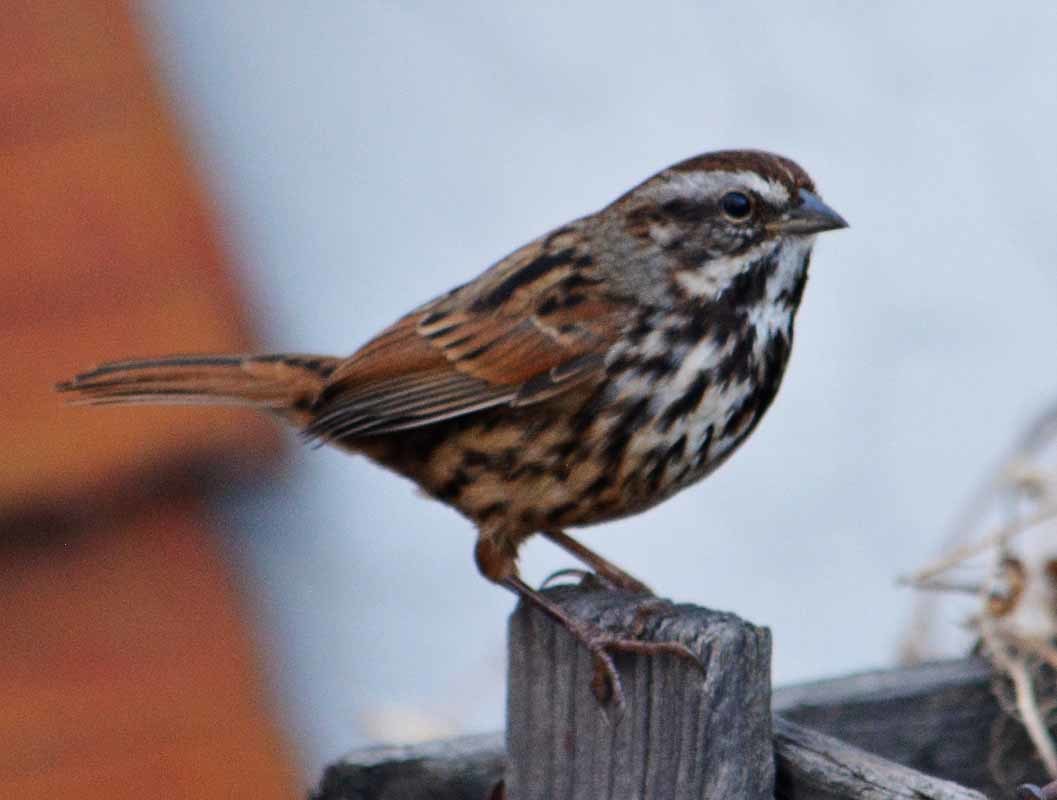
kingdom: Animalia
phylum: Chordata
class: Aves
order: Passeriformes
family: Passerellidae
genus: Melospiza
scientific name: Melospiza melodia
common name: Song sparrow
